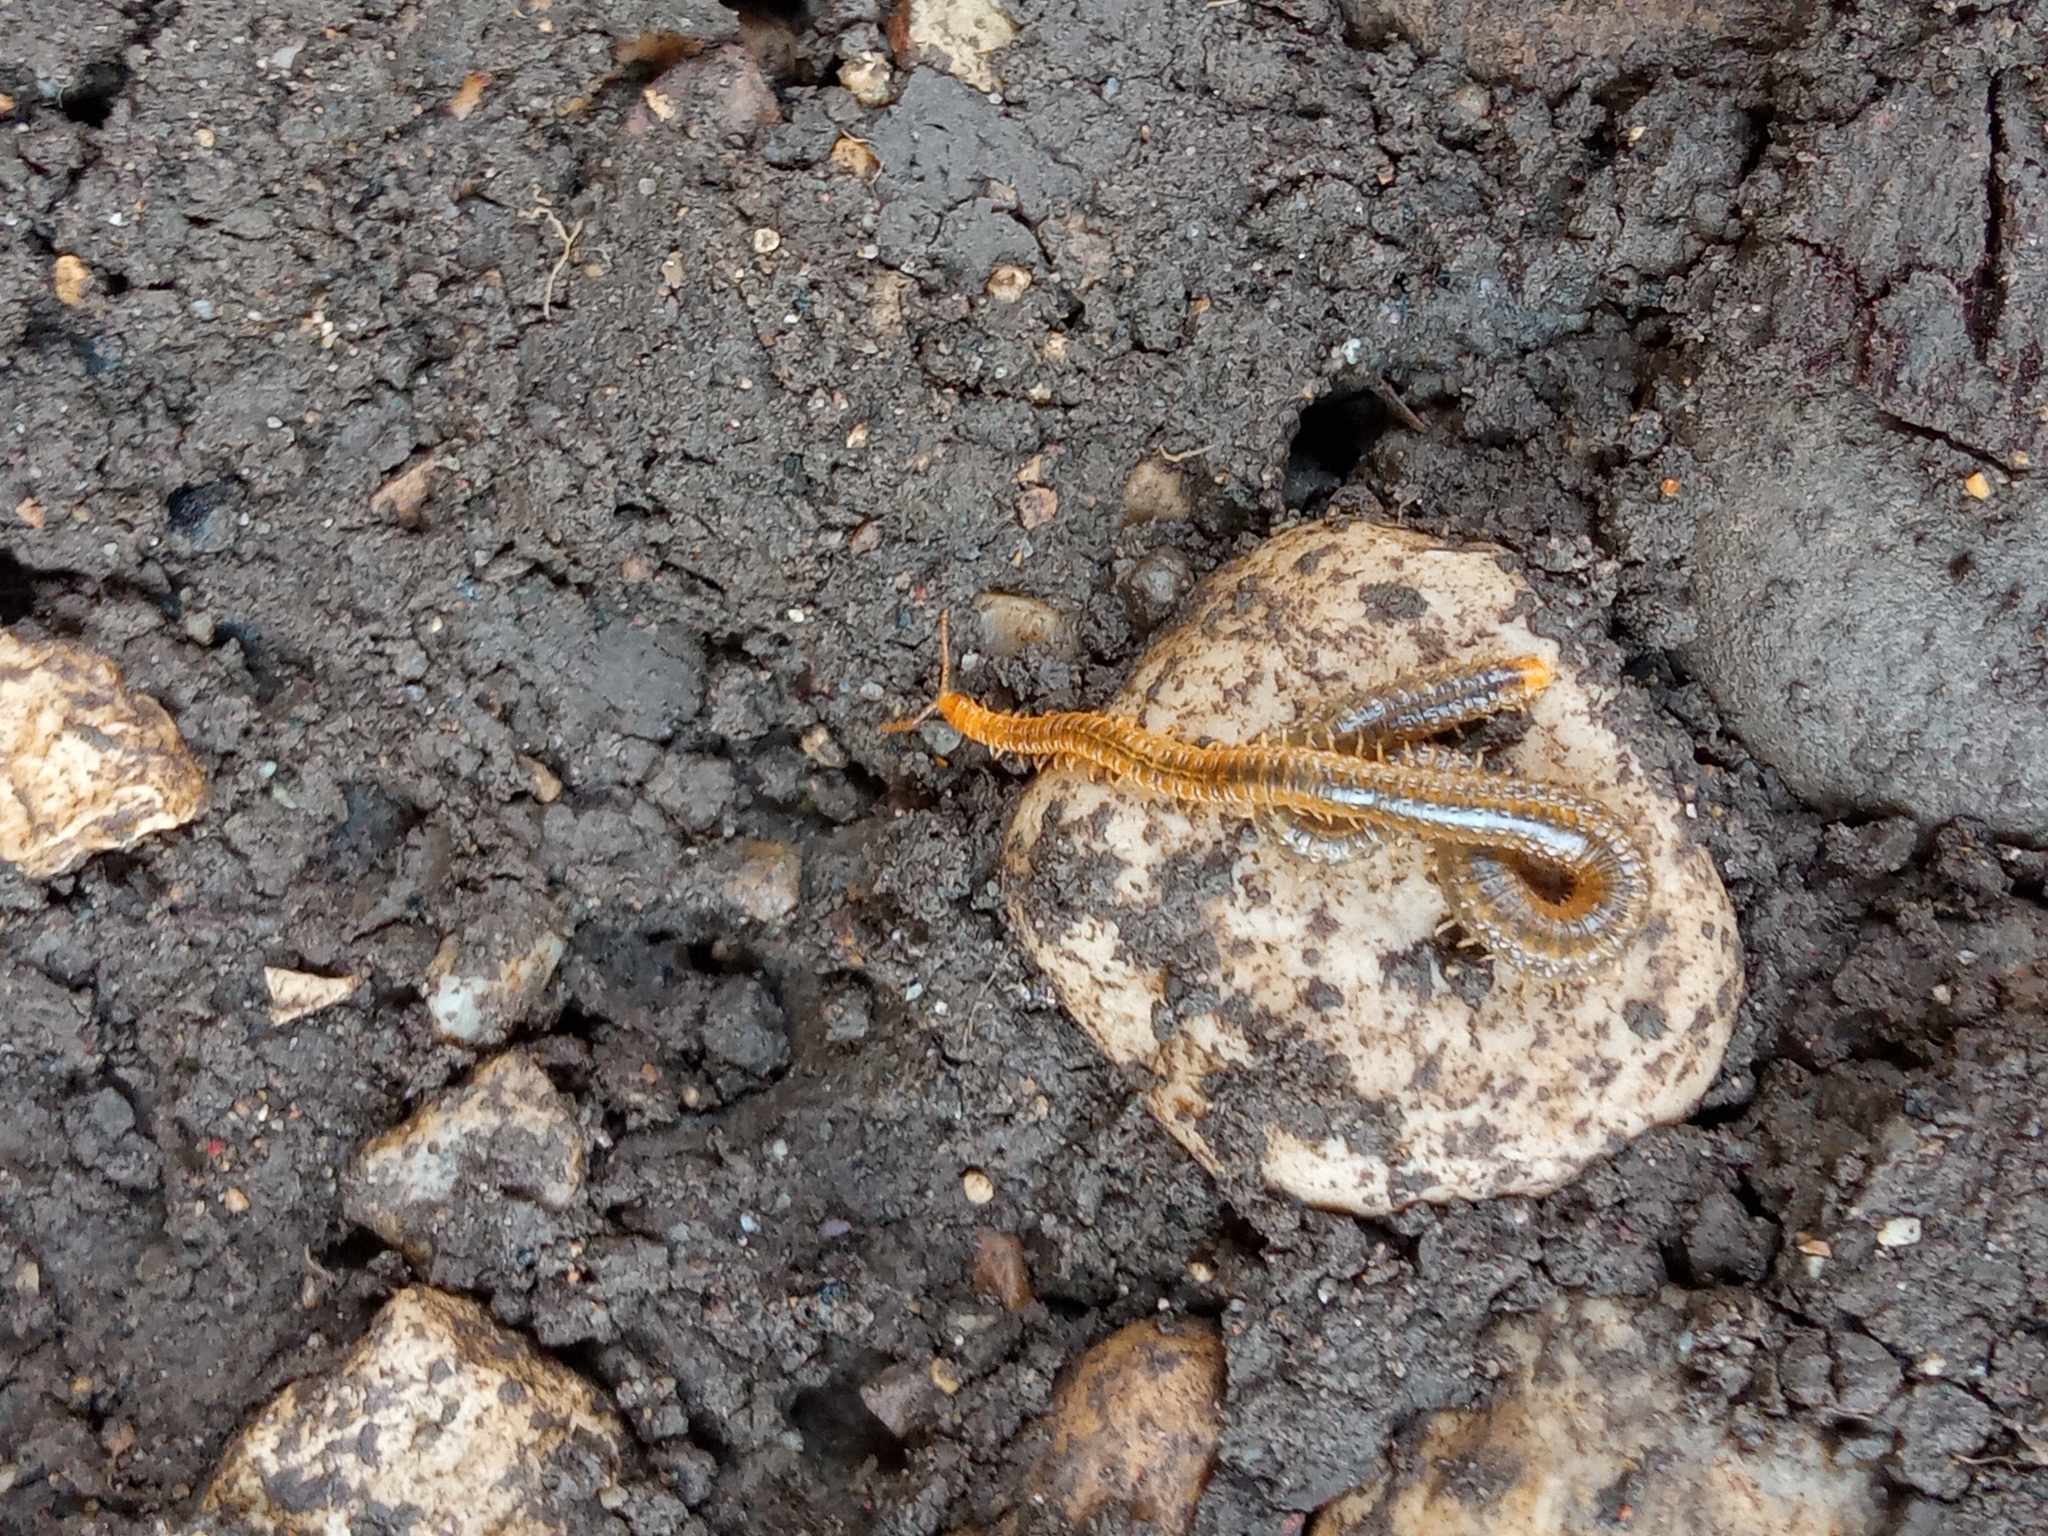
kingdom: Animalia
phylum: Arthropoda
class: Chilopoda
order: Geophilomorpha
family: Dignathodontidae
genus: Henia
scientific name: Henia vesuviana
